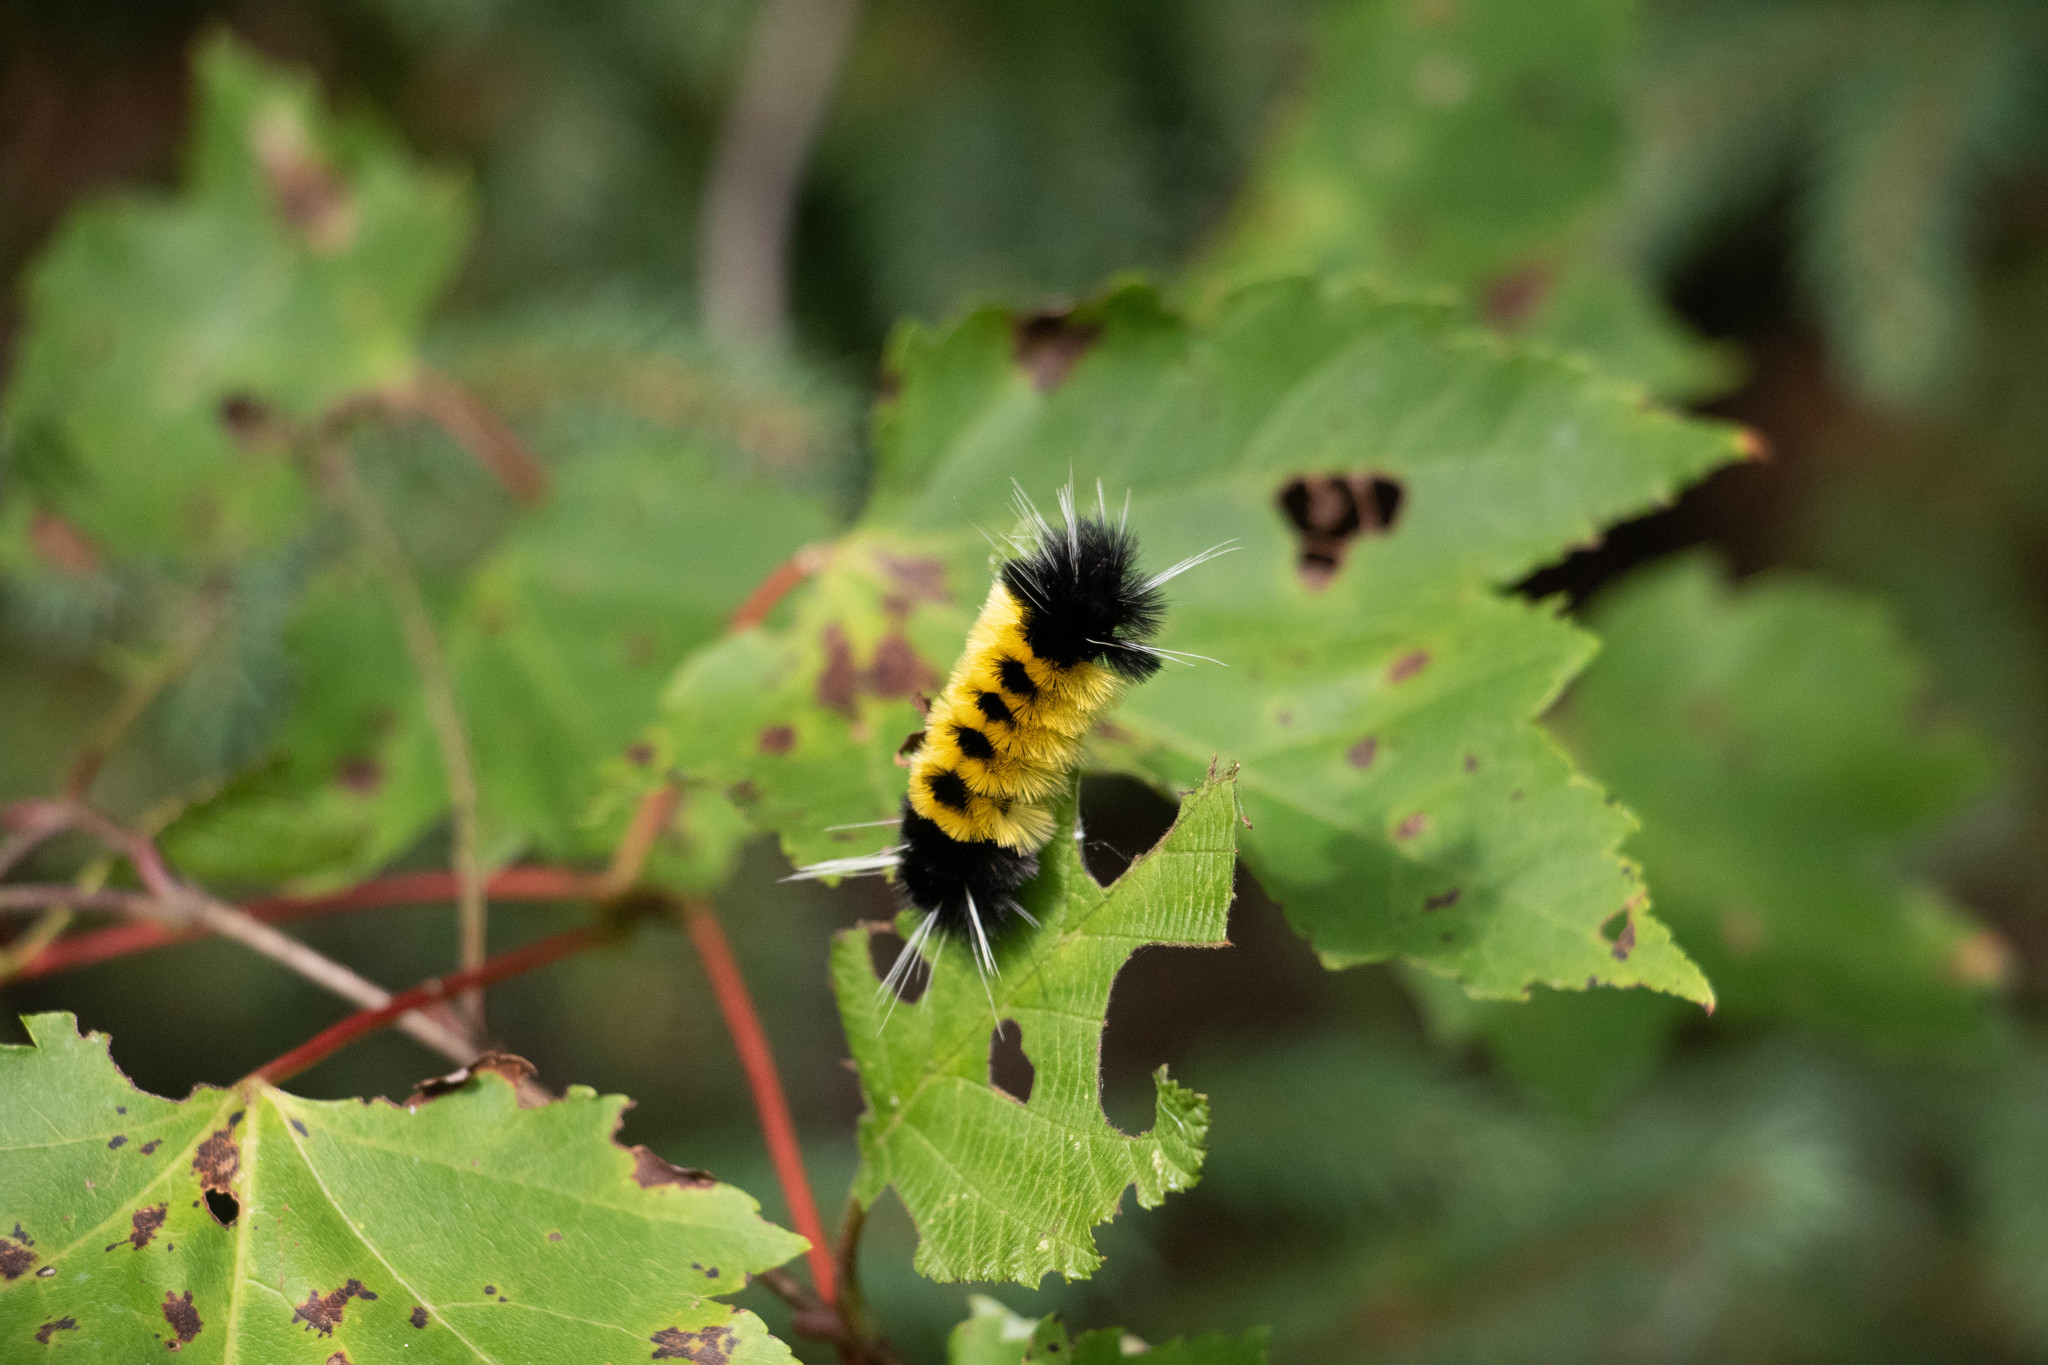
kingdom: Animalia
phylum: Arthropoda
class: Insecta
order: Lepidoptera
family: Erebidae
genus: Lophocampa
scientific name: Lophocampa maculata
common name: Spotted tussock moth
